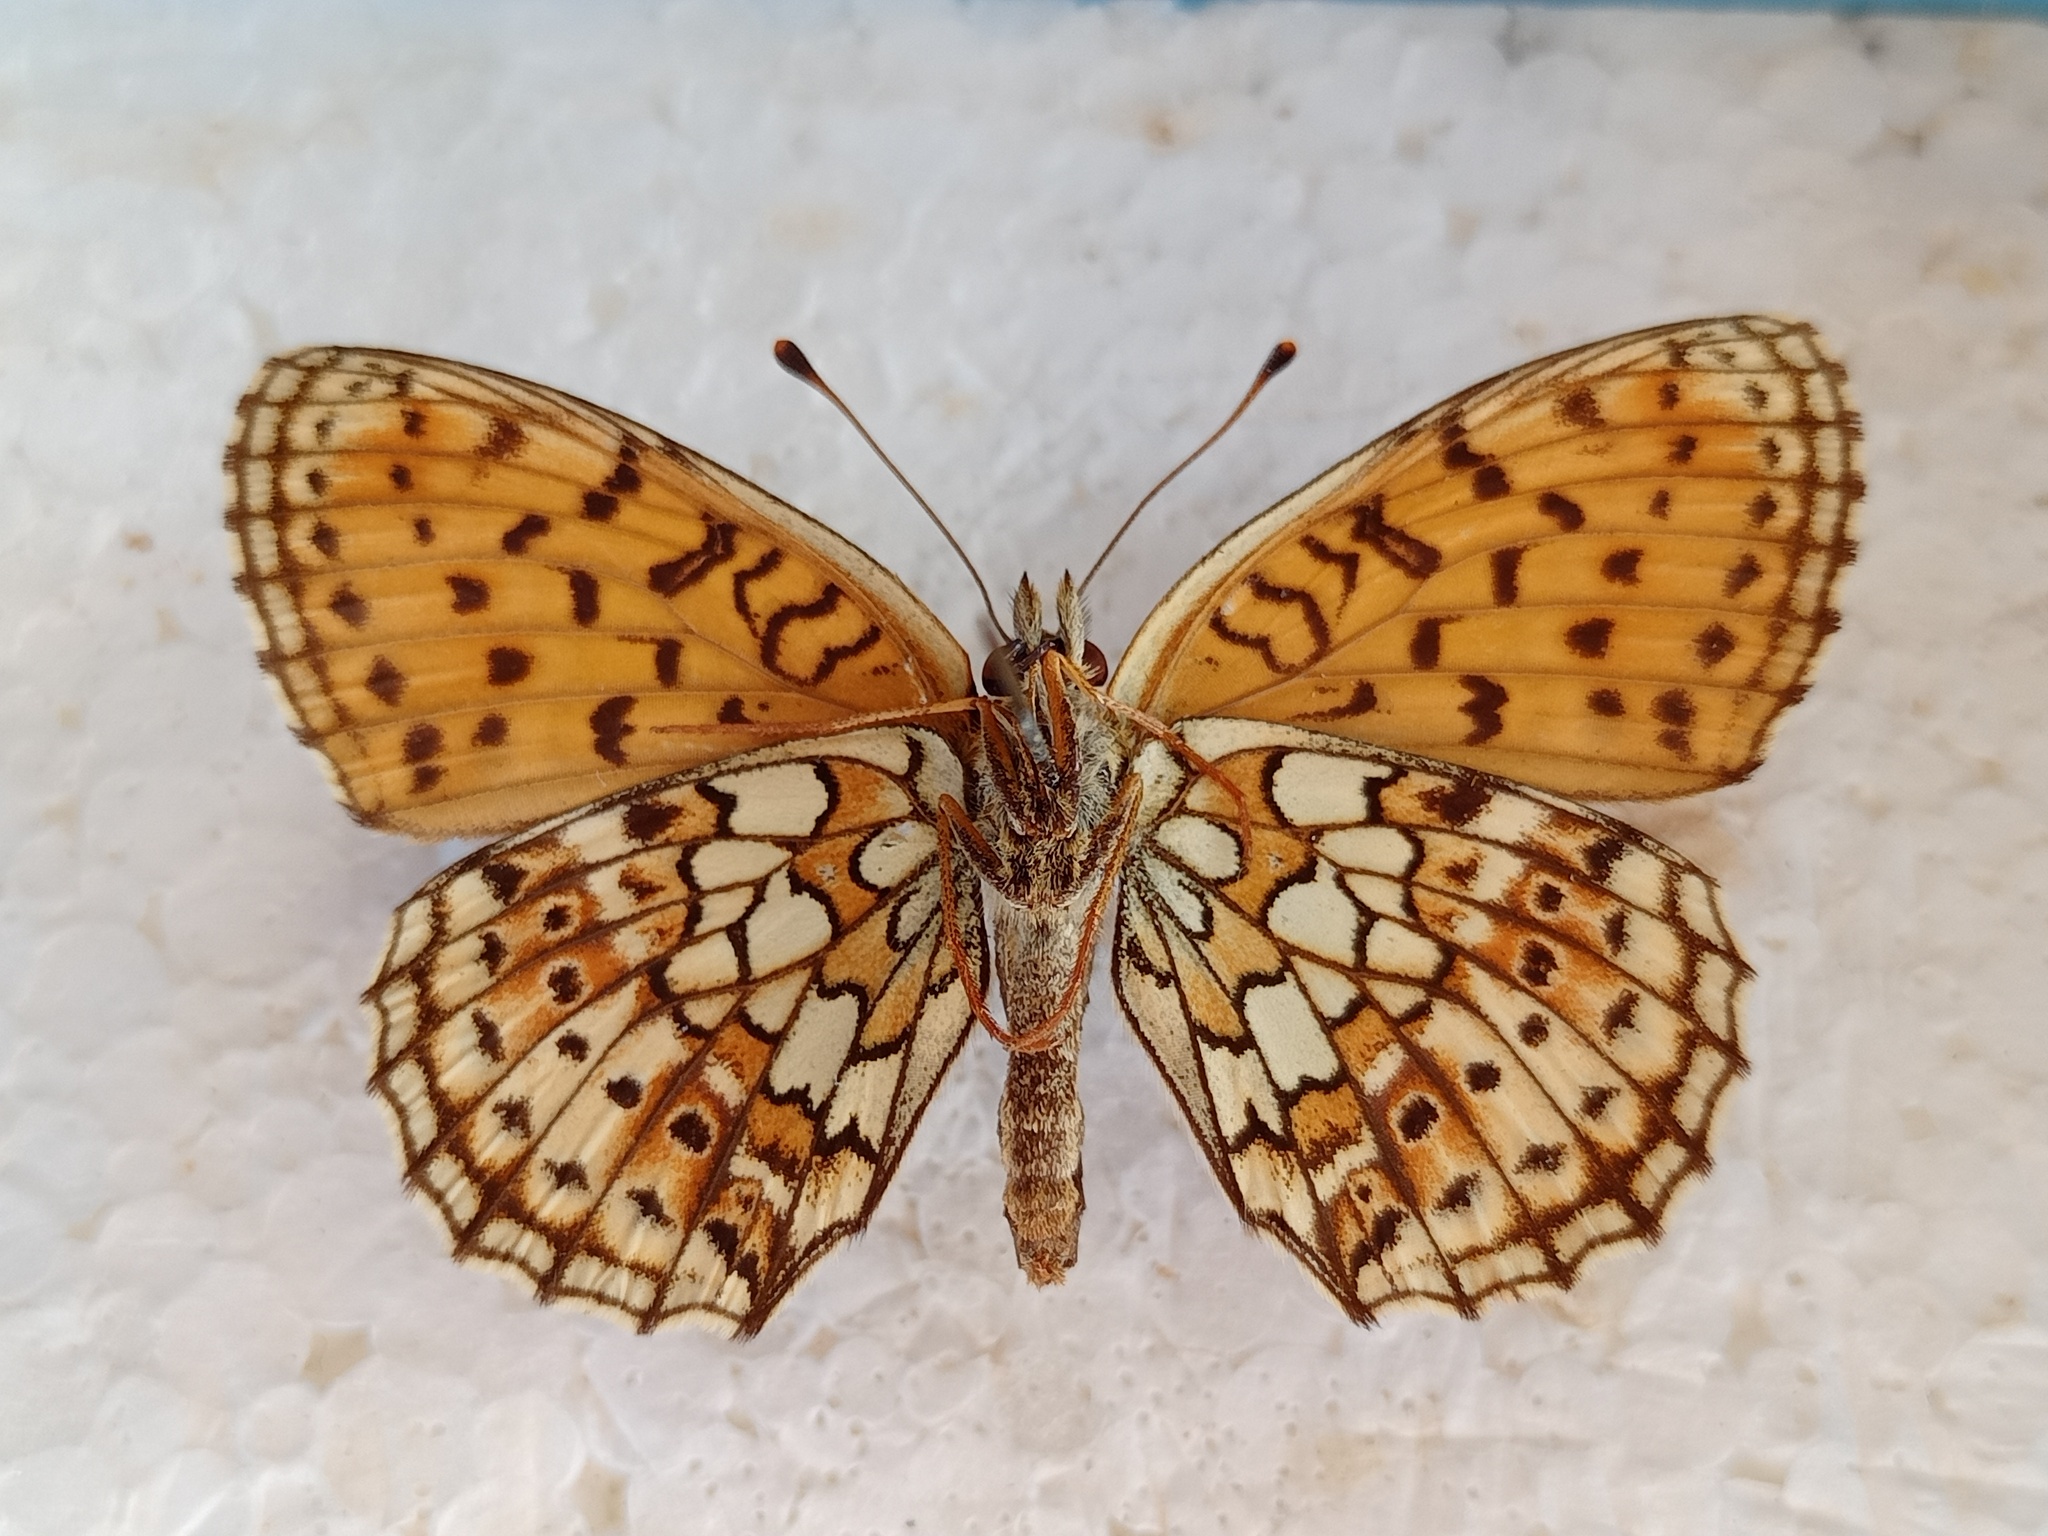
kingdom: Animalia
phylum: Arthropoda
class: Insecta
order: Lepidoptera
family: Nymphalidae
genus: Brenthis
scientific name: Brenthis hecate
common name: Twin-spot fritillary
